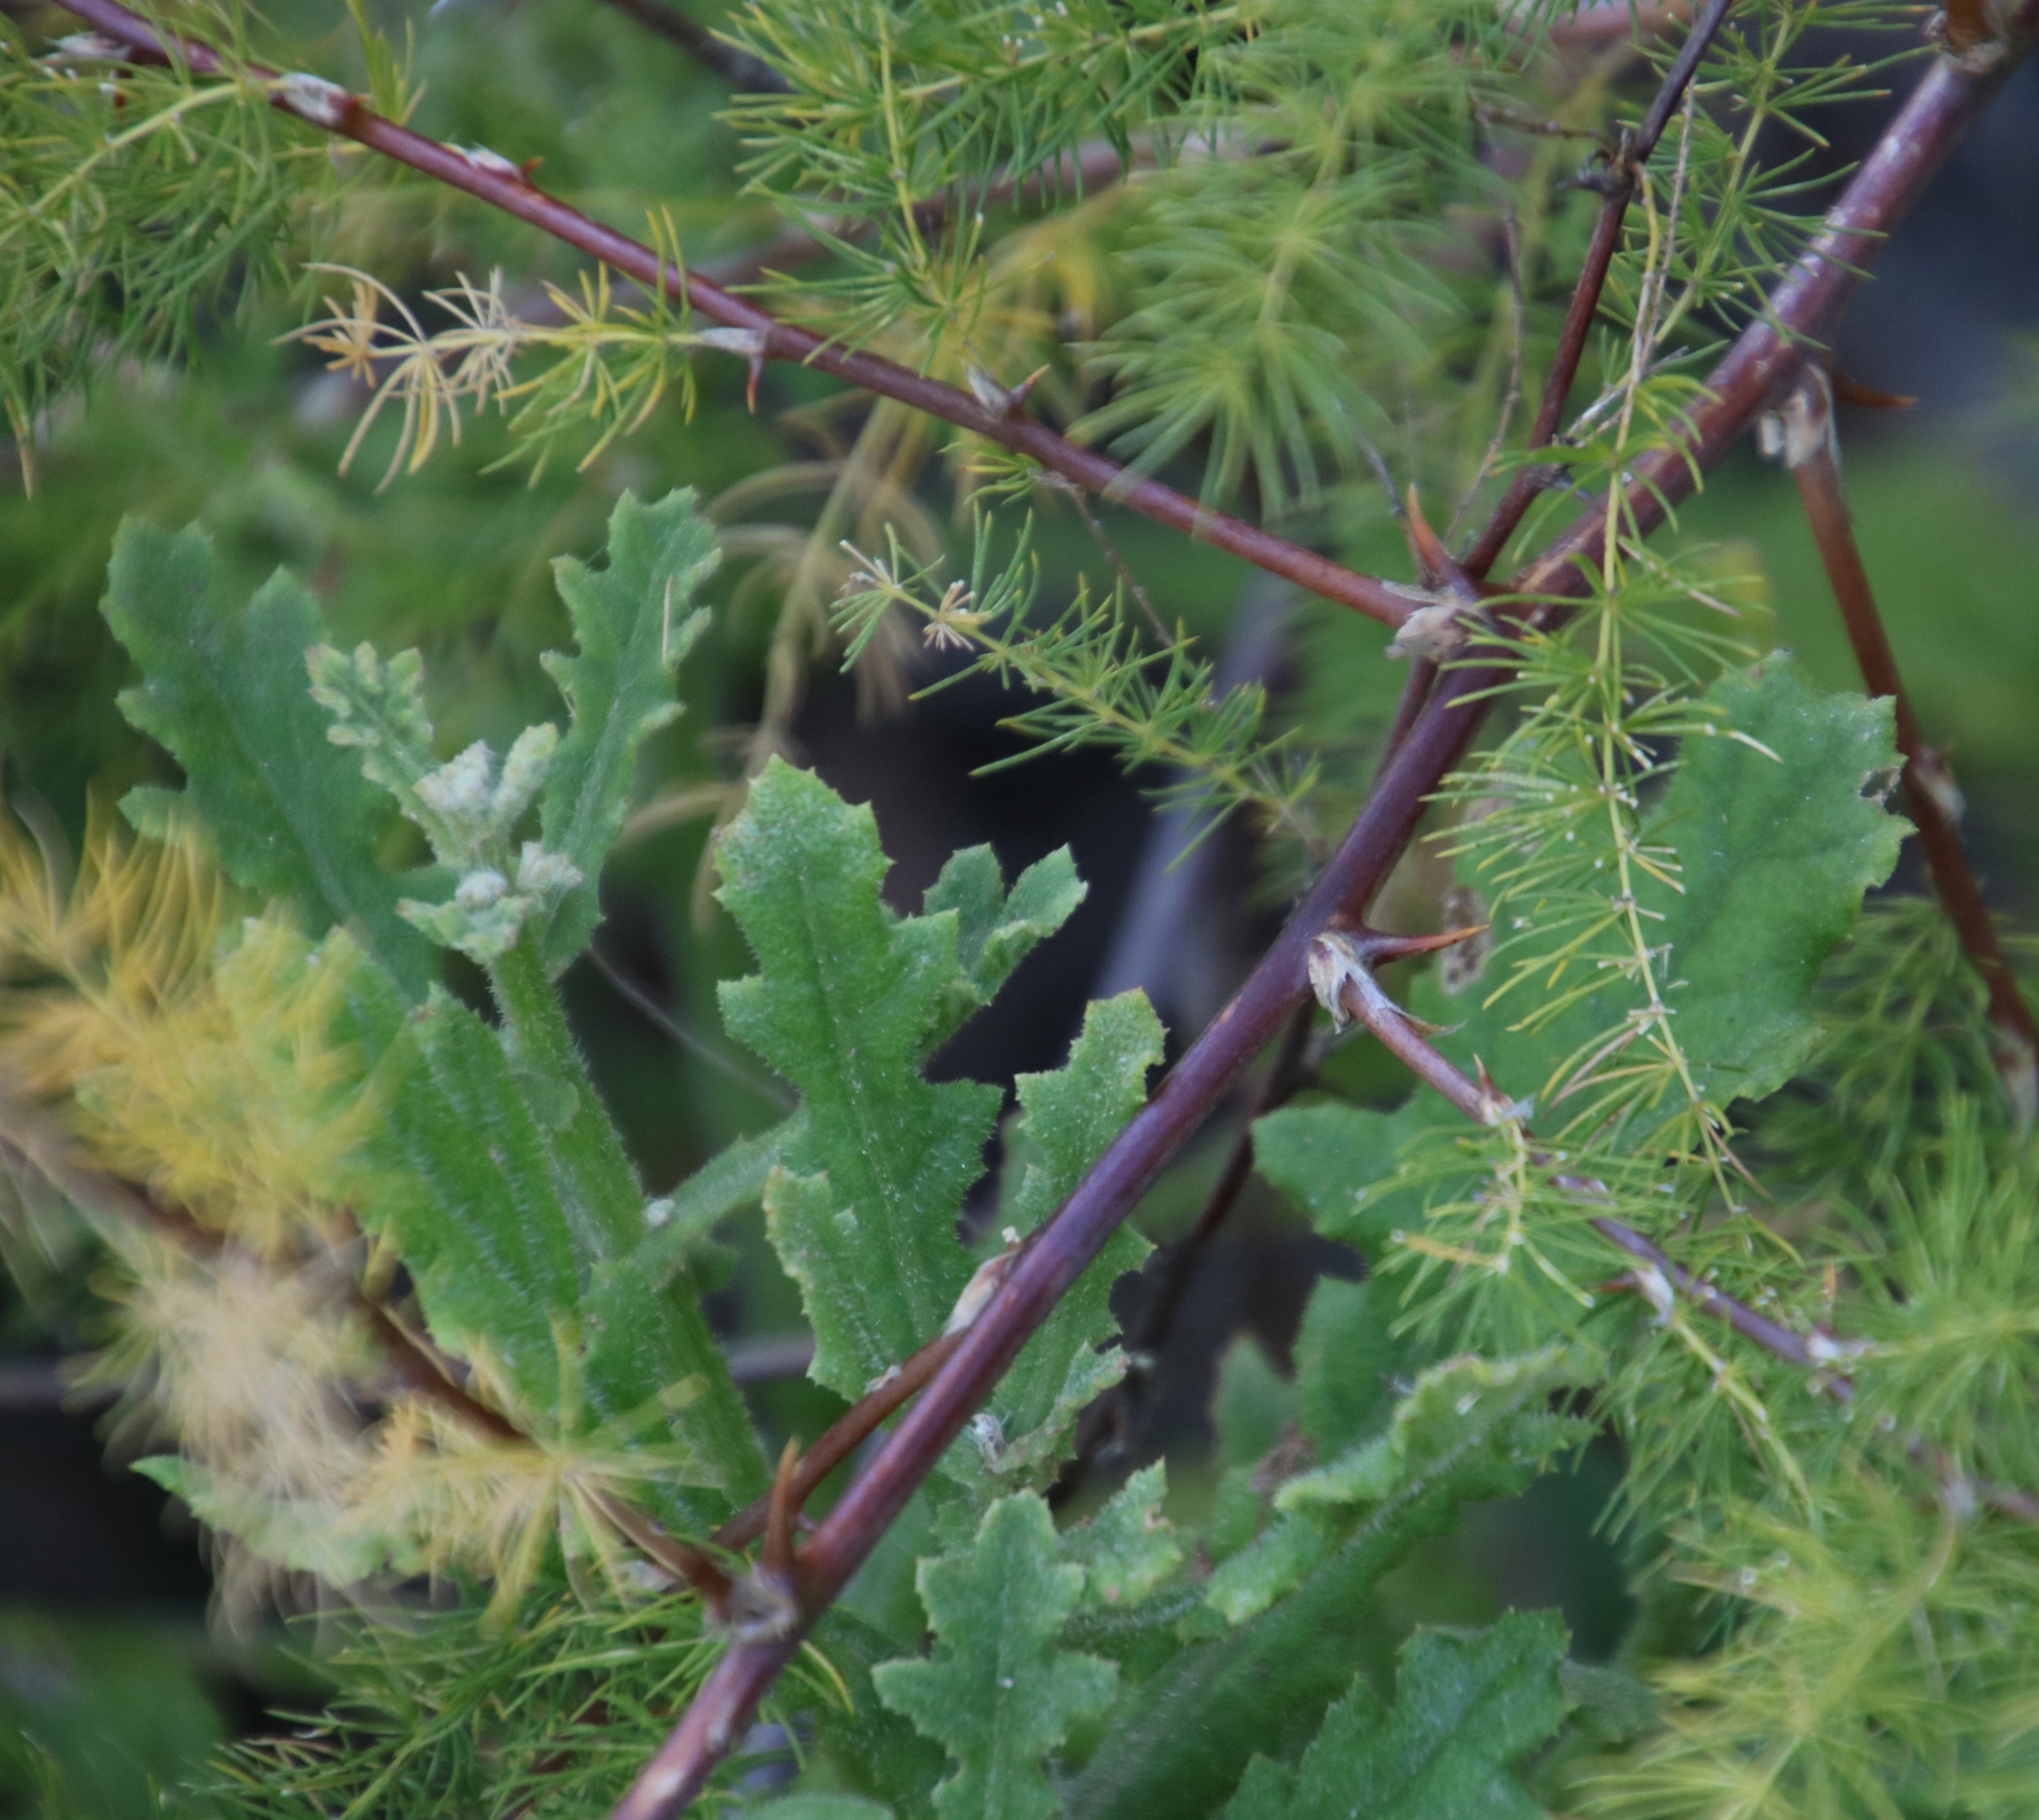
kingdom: Plantae
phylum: Tracheophyta
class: Liliopsida
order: Asparagales
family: Asparagaceae
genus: Asparagus
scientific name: Asparagus rubicundus
